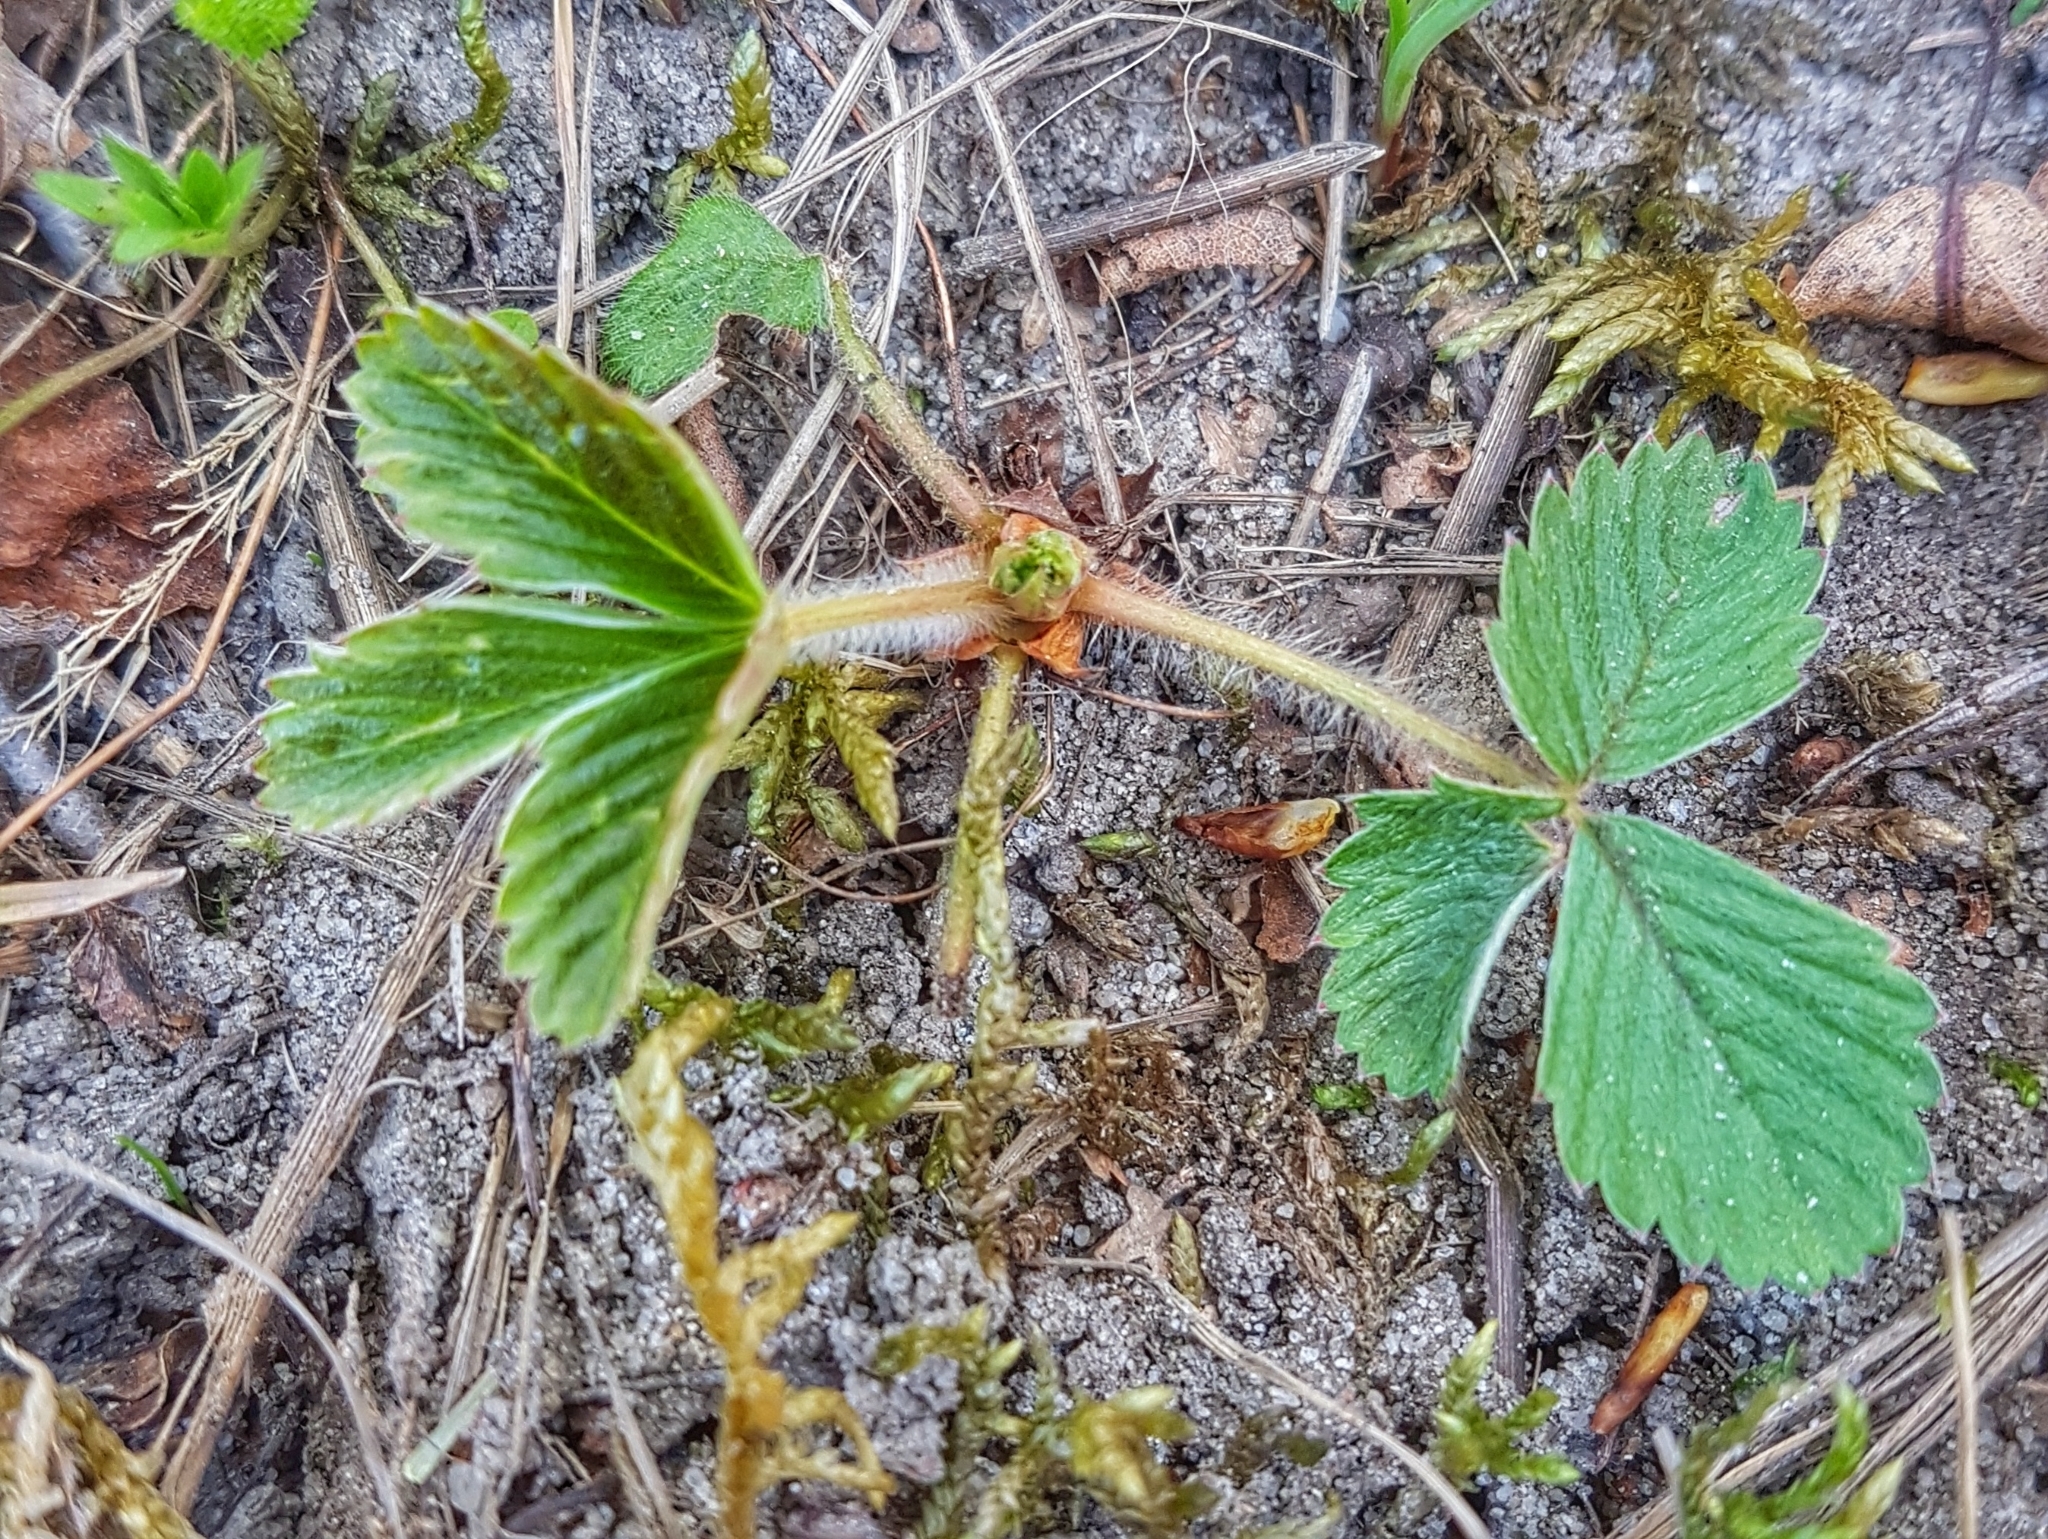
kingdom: Plantae
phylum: Tracheophyta
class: Magnoliopsida
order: Rosales
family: Rosaceae
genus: Fragaria
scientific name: Fragaria vesca
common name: Wild strawberry
